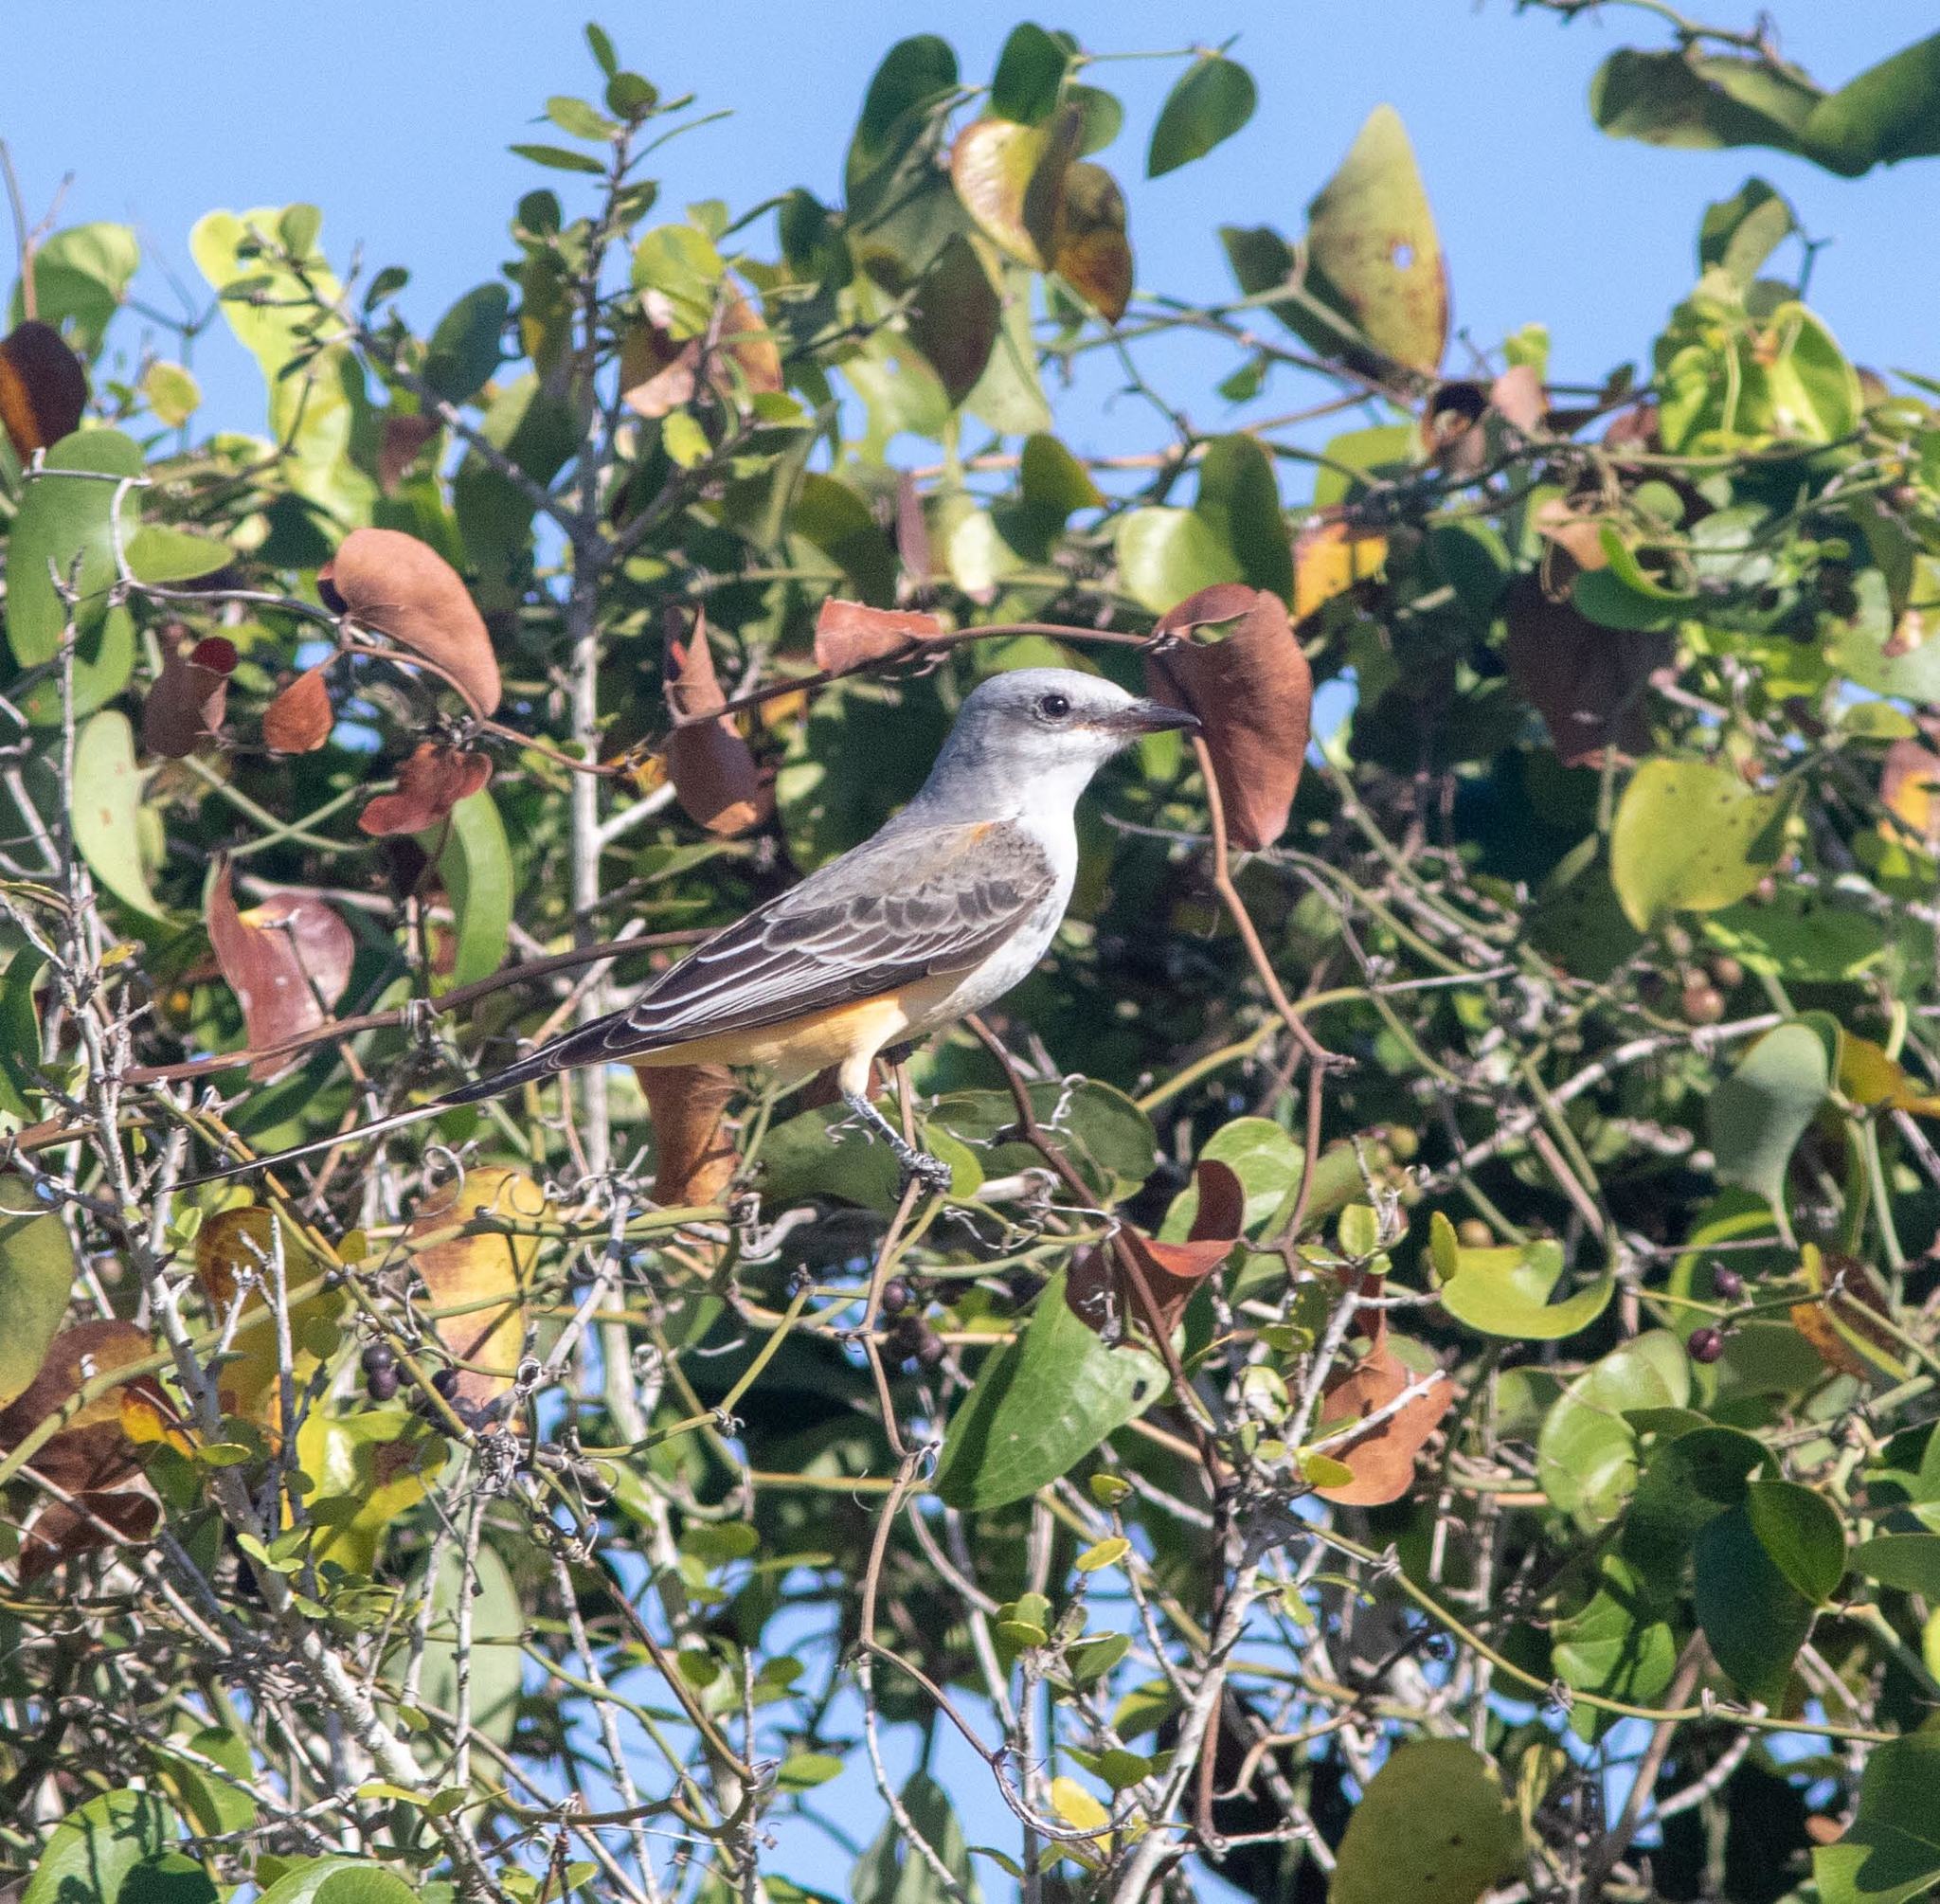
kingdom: Animalia
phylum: Chordata
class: Aves
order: Passeriformes
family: Tyrannidae
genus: Tyrannus
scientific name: Tyrannus forficatus
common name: Scissor-tailed flycatcher
